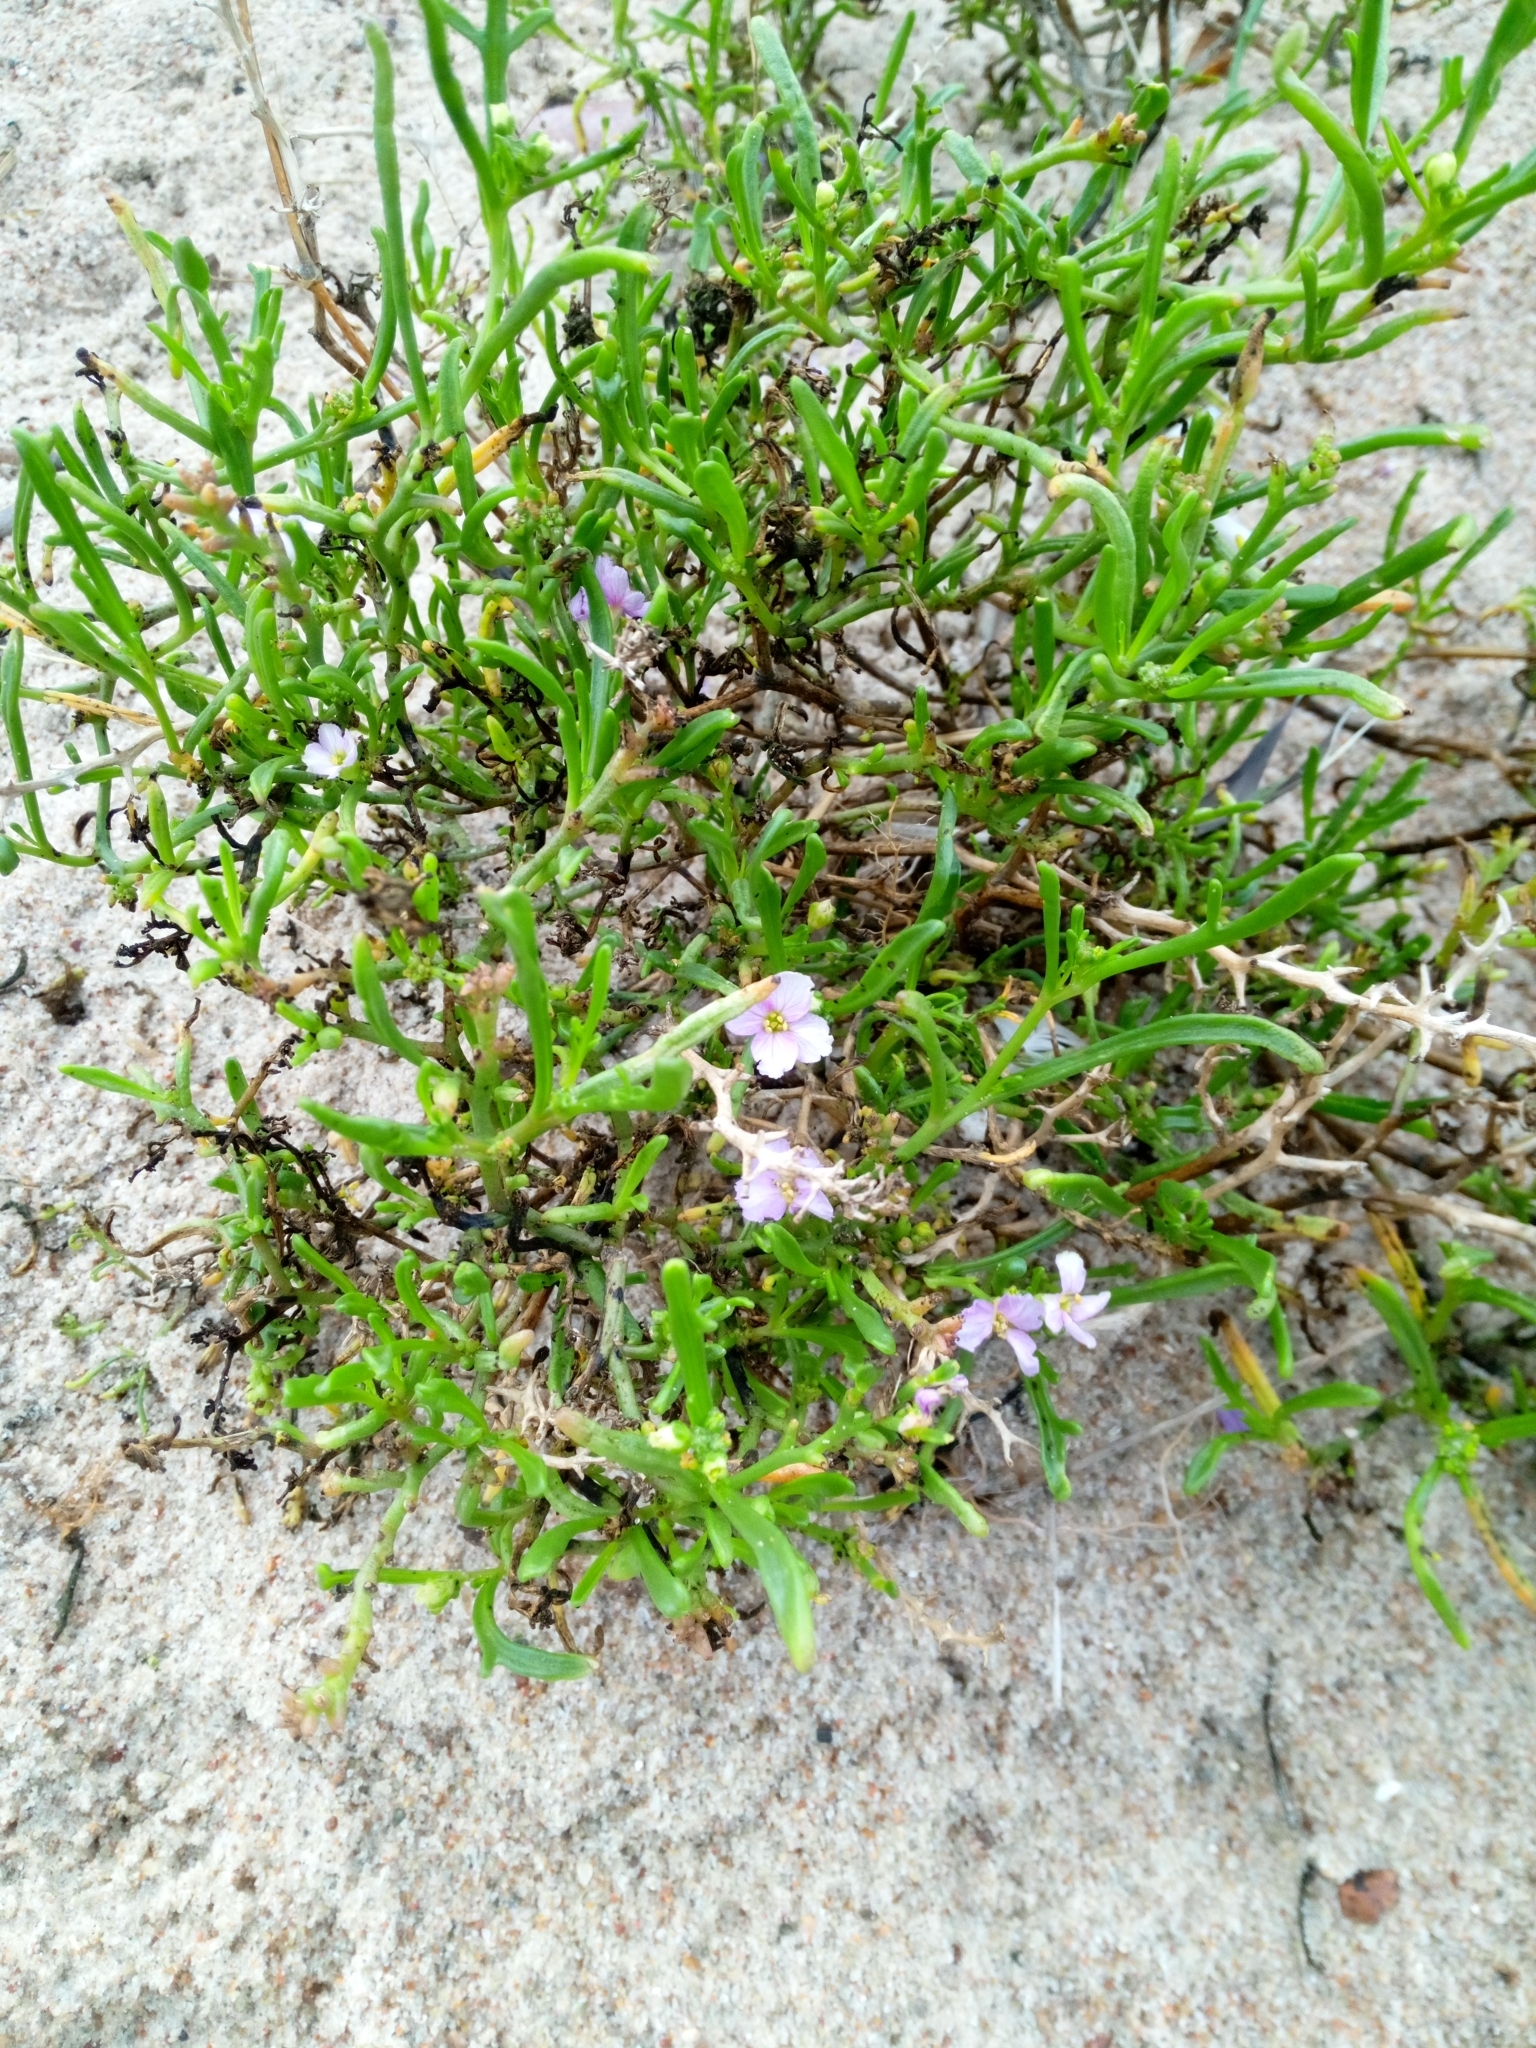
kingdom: Plantae
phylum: Tracheophyta
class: Magnoliopsida
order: Brassicales
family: Brassicaceae
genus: Cakile
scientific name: Cakile maritima
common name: Sea rocket
